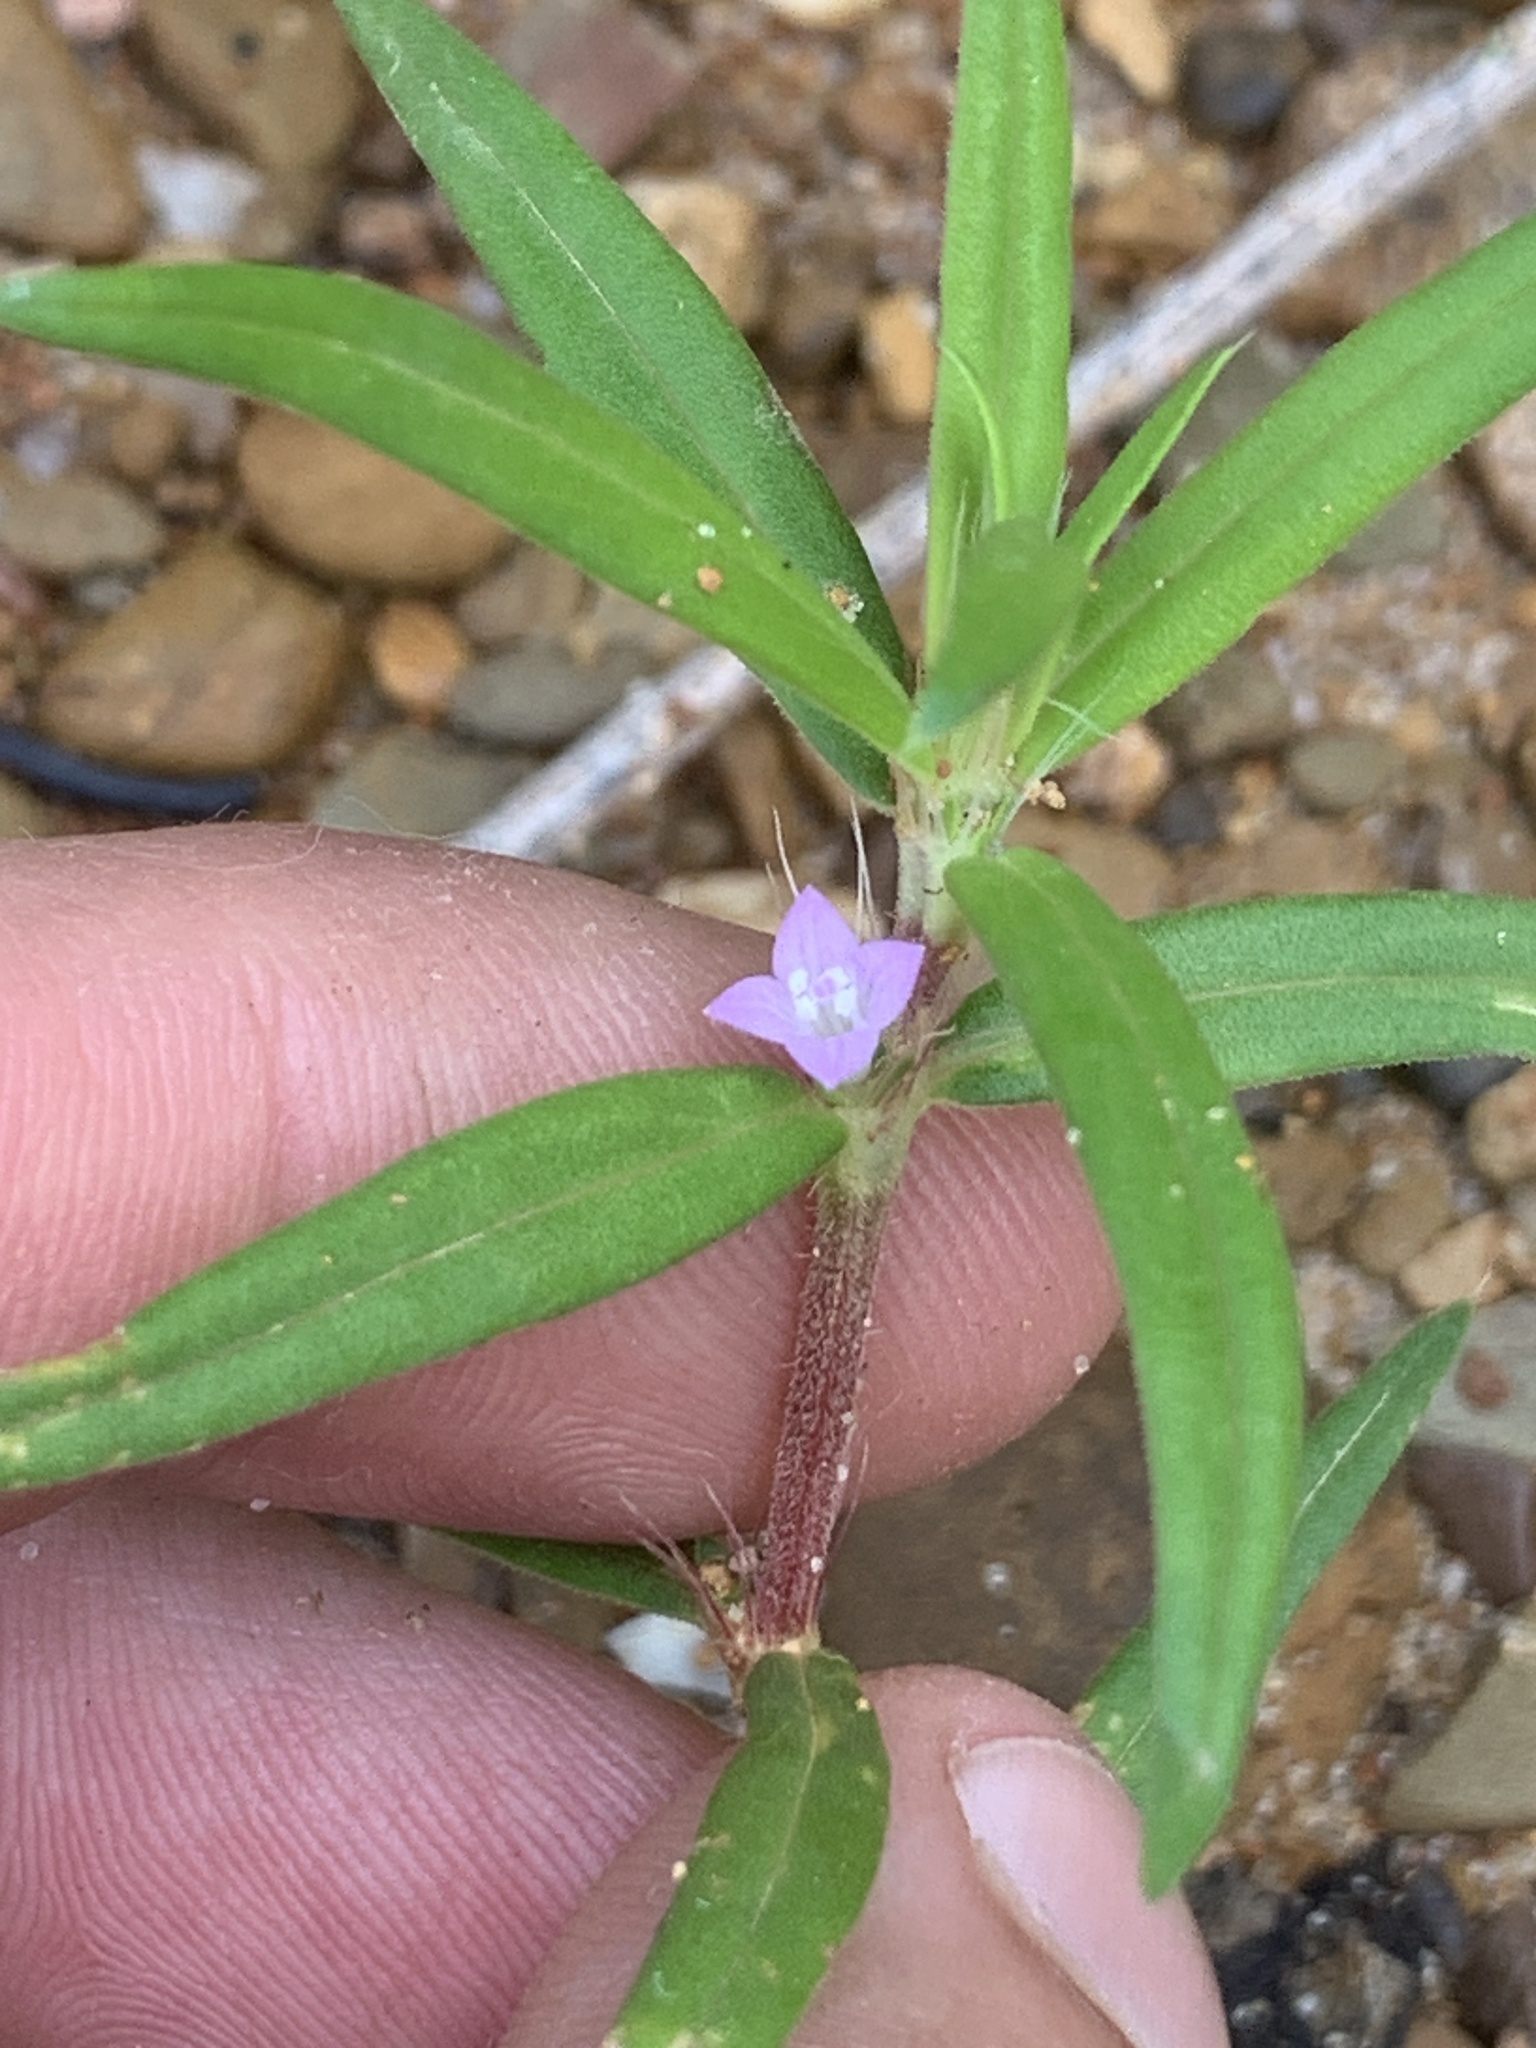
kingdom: Plantae
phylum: Tracheophyta
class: Magnoliopsida
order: Gentianales
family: Rubiaceae
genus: Hexasepalum
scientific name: Hexasepalum teres
